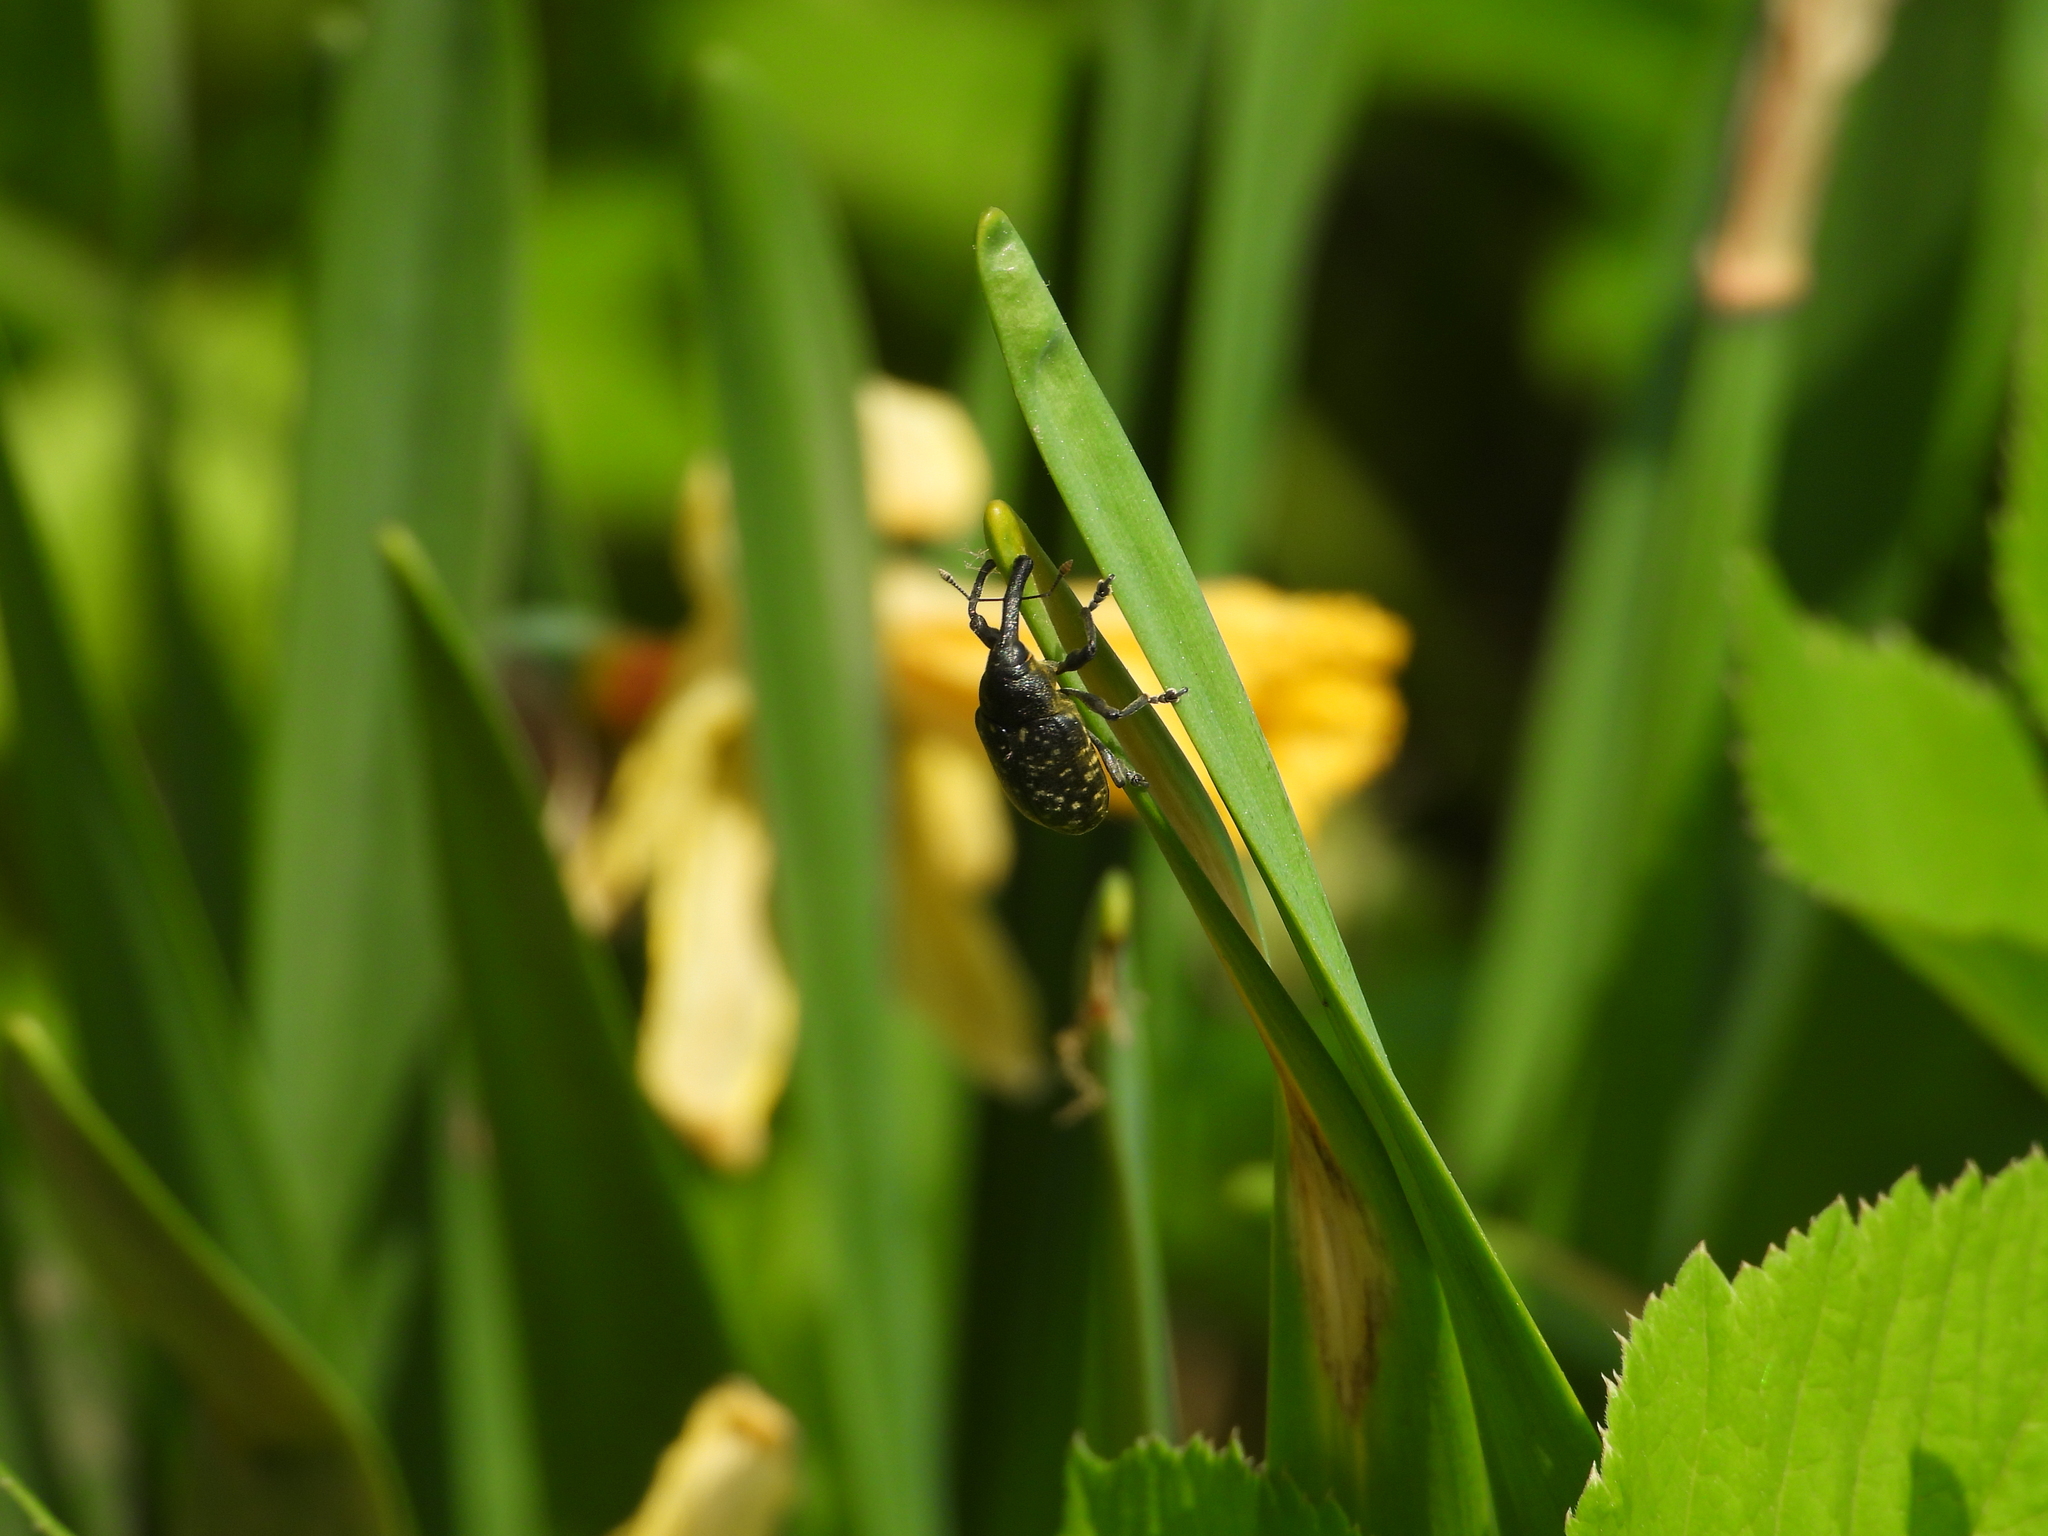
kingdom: Animalia
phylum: Arthropoda
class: Insecta
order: Coleoptera
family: Curculionidae
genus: Larinus
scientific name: Larinus sturnus
